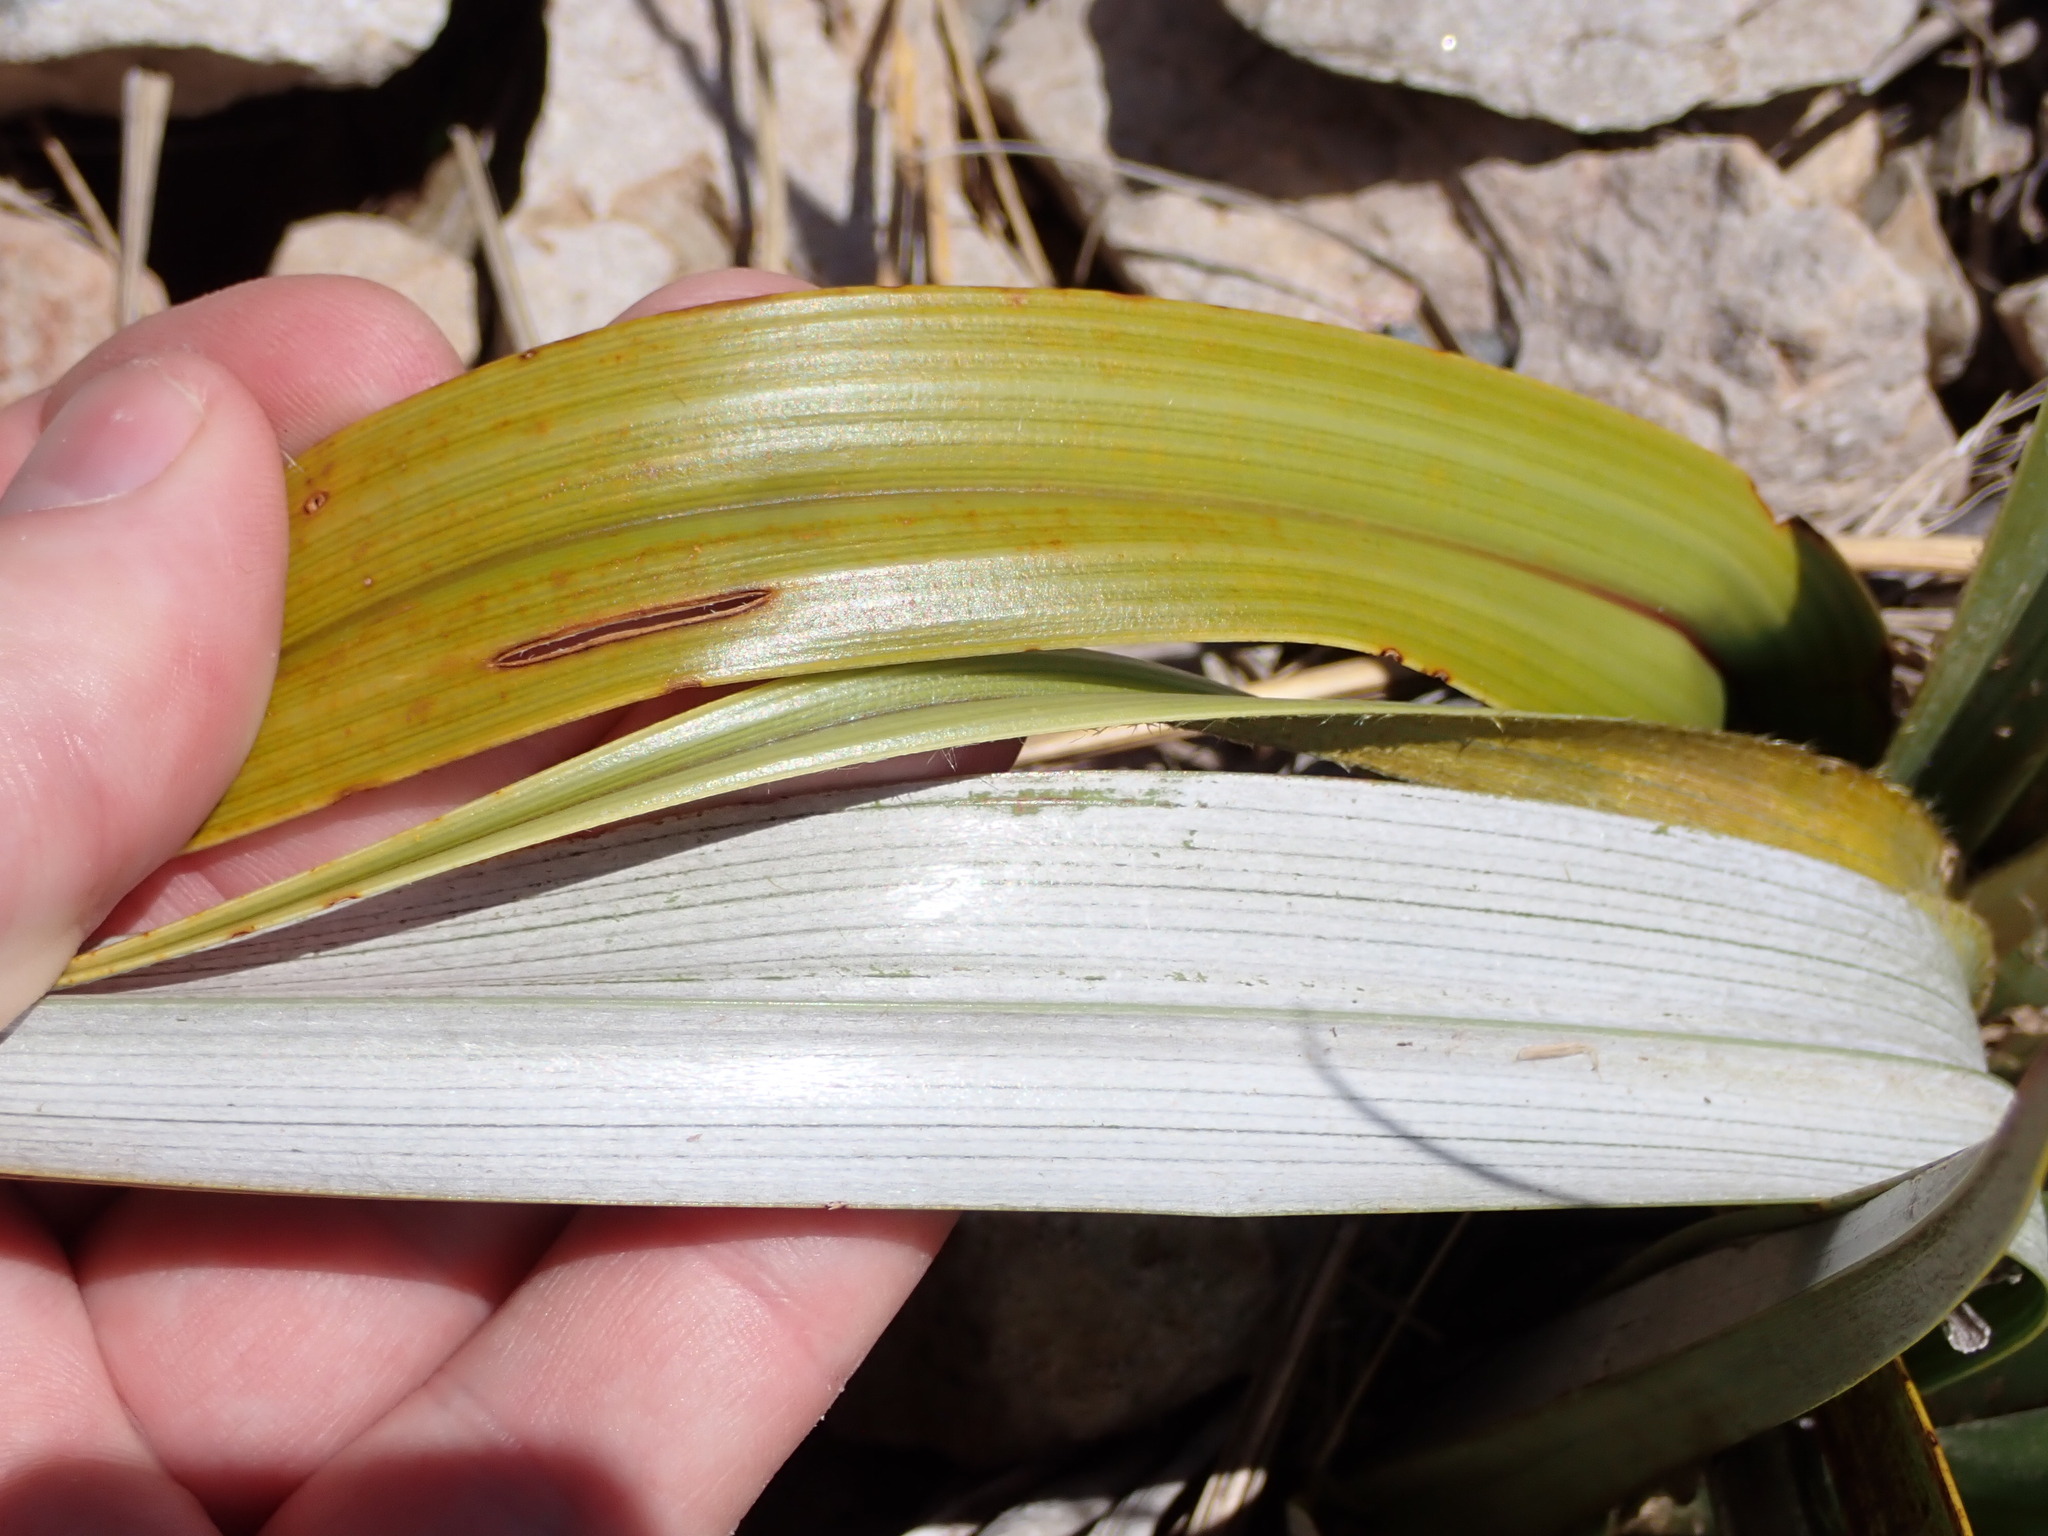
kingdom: Plantae
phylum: Tracheophyta
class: Liliopsida
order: Asparagales
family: Asteliaceae
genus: Astelia
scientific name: Astelia petriei
